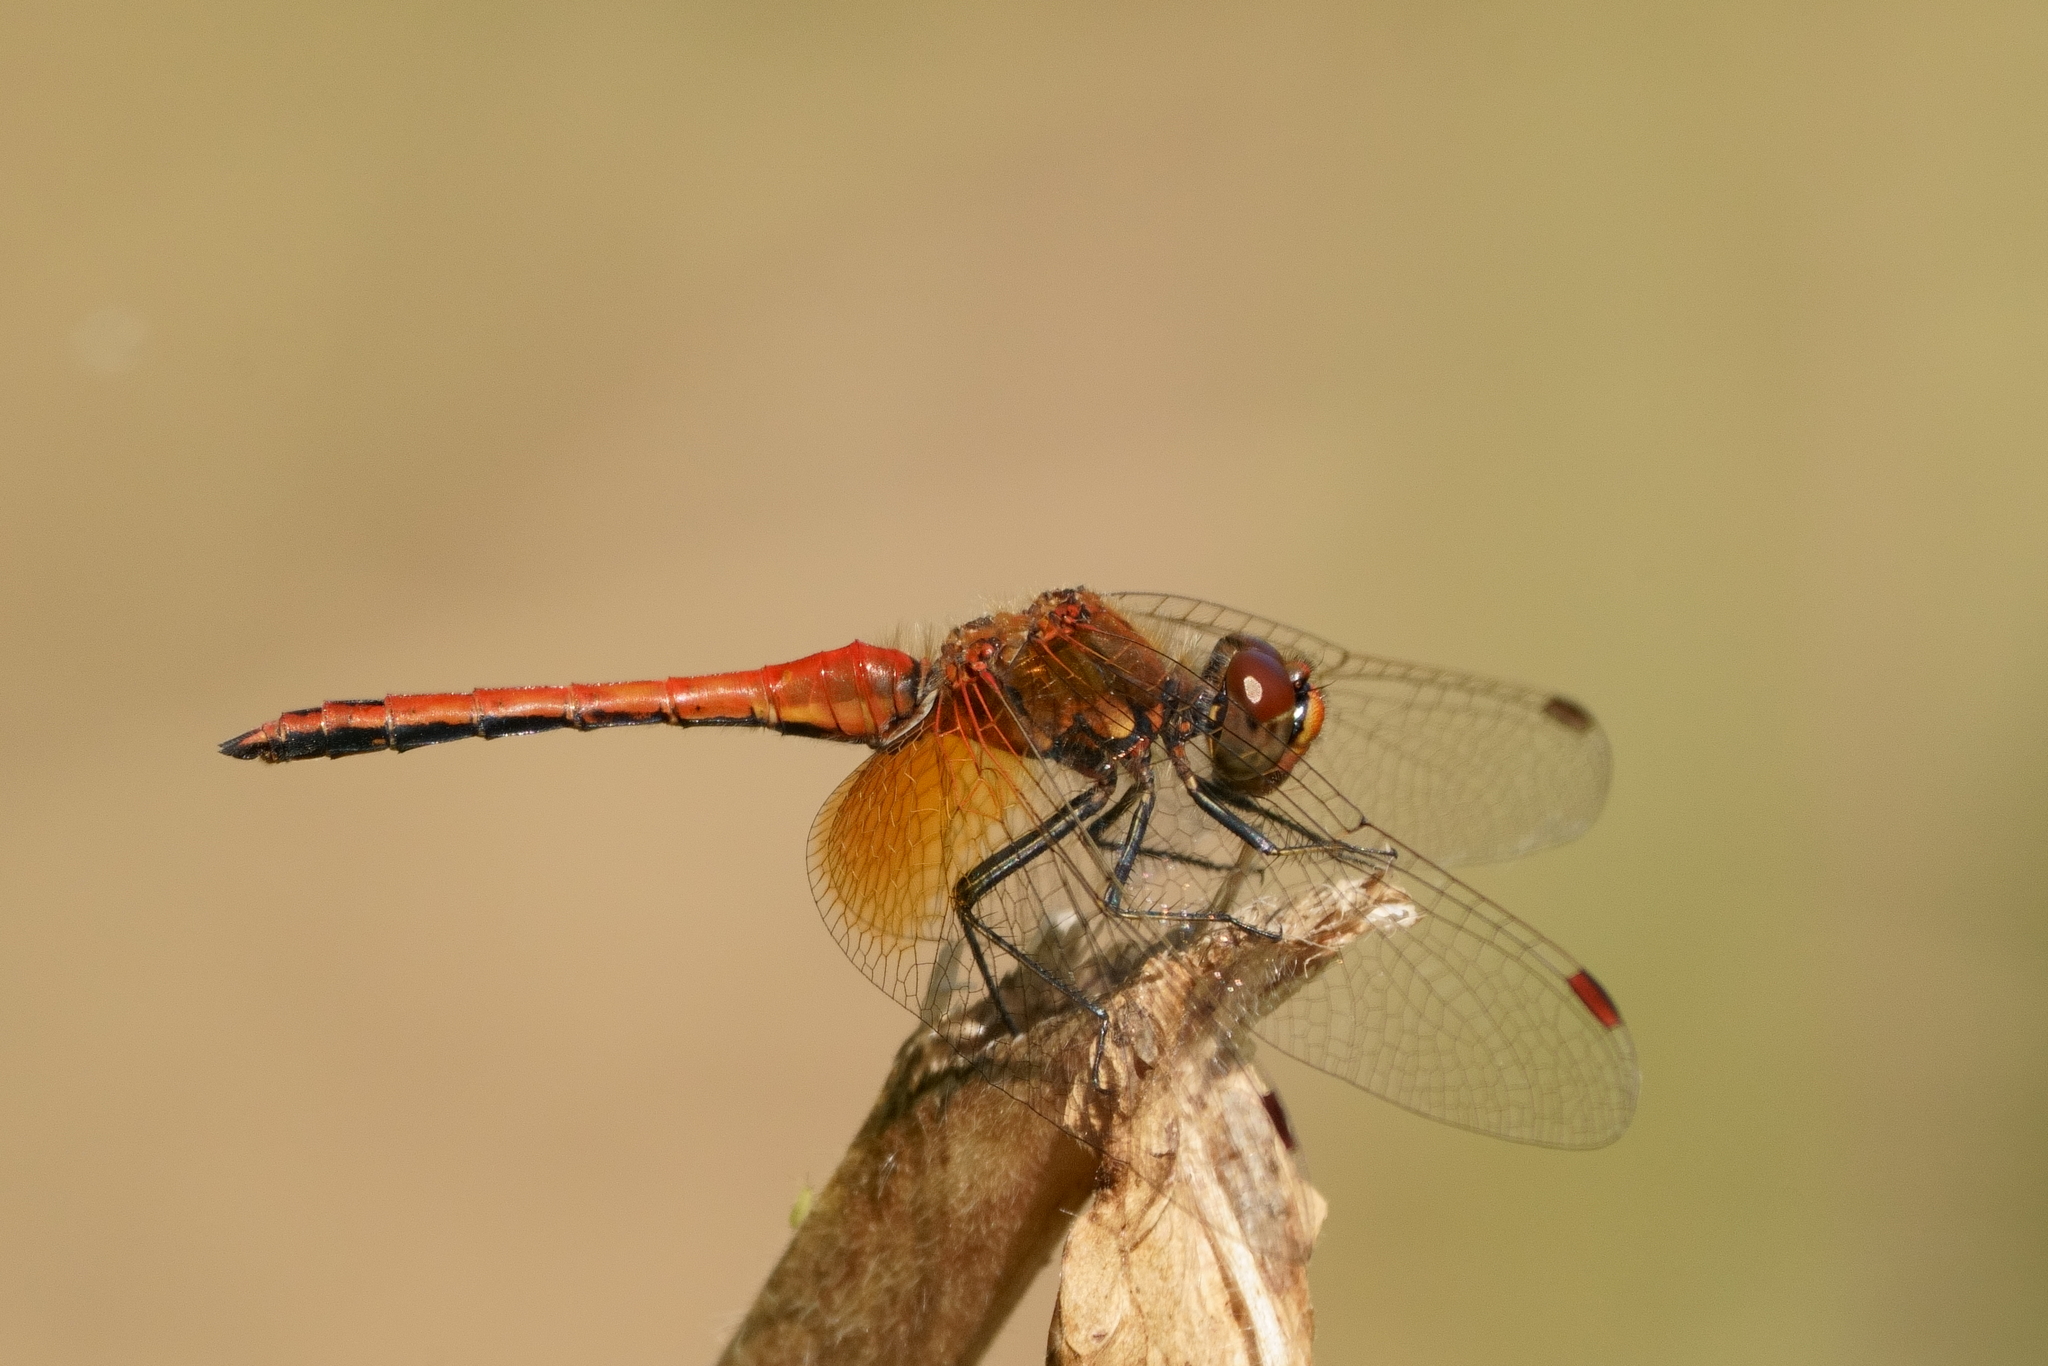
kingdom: Animalia
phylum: Arthropoda
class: Insecta
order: Odonata
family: Libellulidae
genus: Sympetrum
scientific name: Sympetrum flaveolum
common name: Yellow-winged darter
